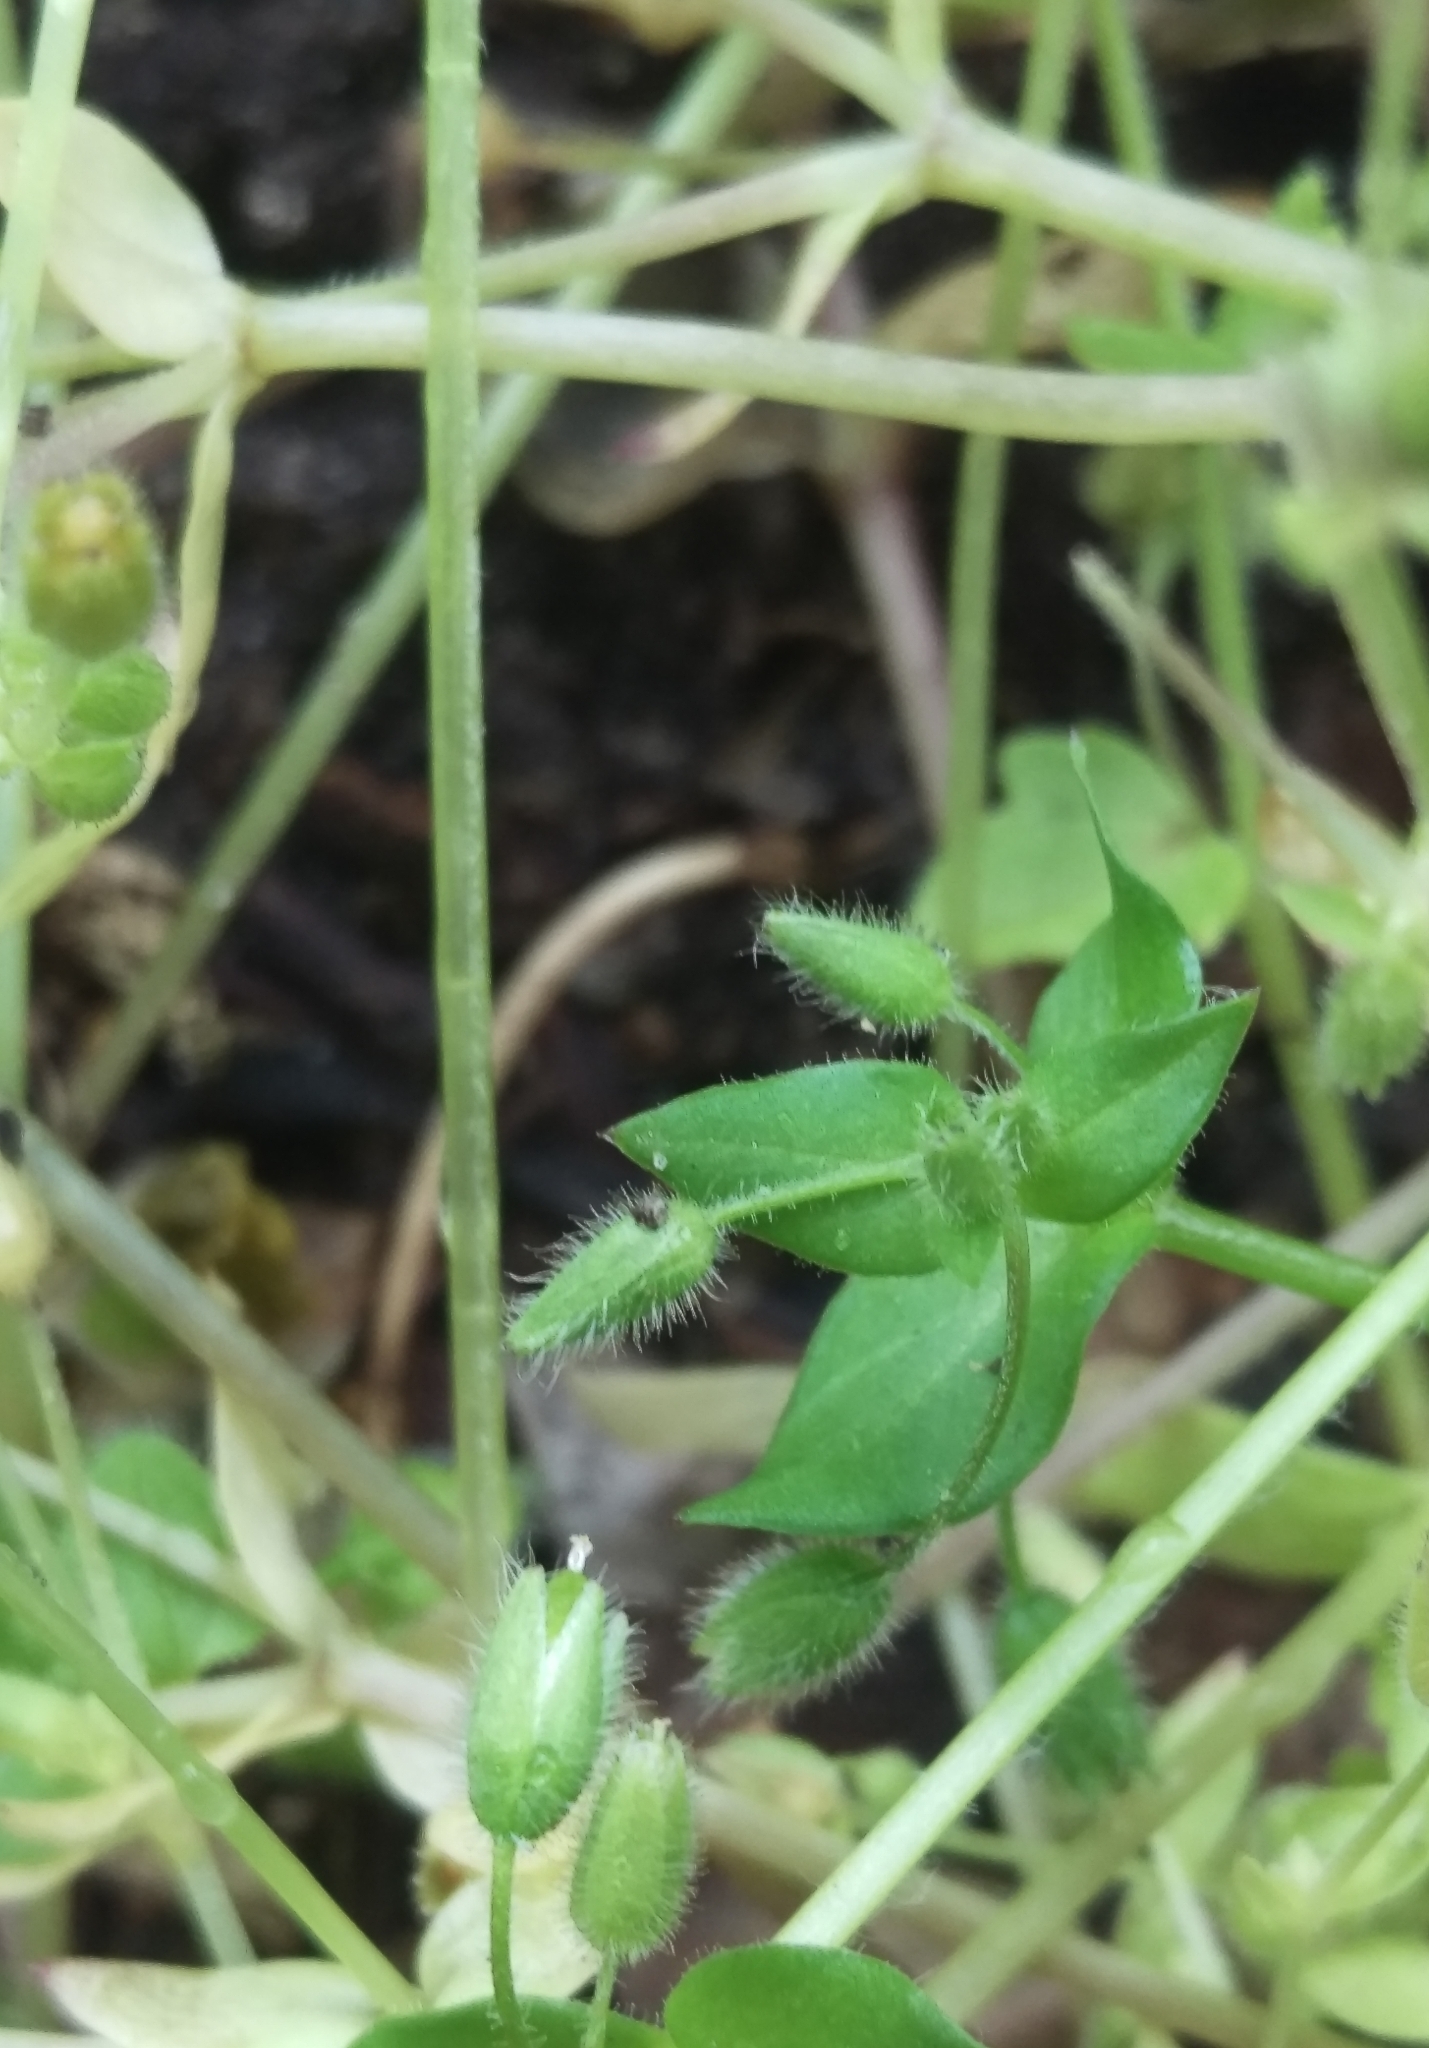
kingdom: Plantae
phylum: Tracheophyta
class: Magnoliopsida
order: Caryophyllales
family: Caryophyllaceae
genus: Stellaria
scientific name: Stellaria media
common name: Common chickweed
